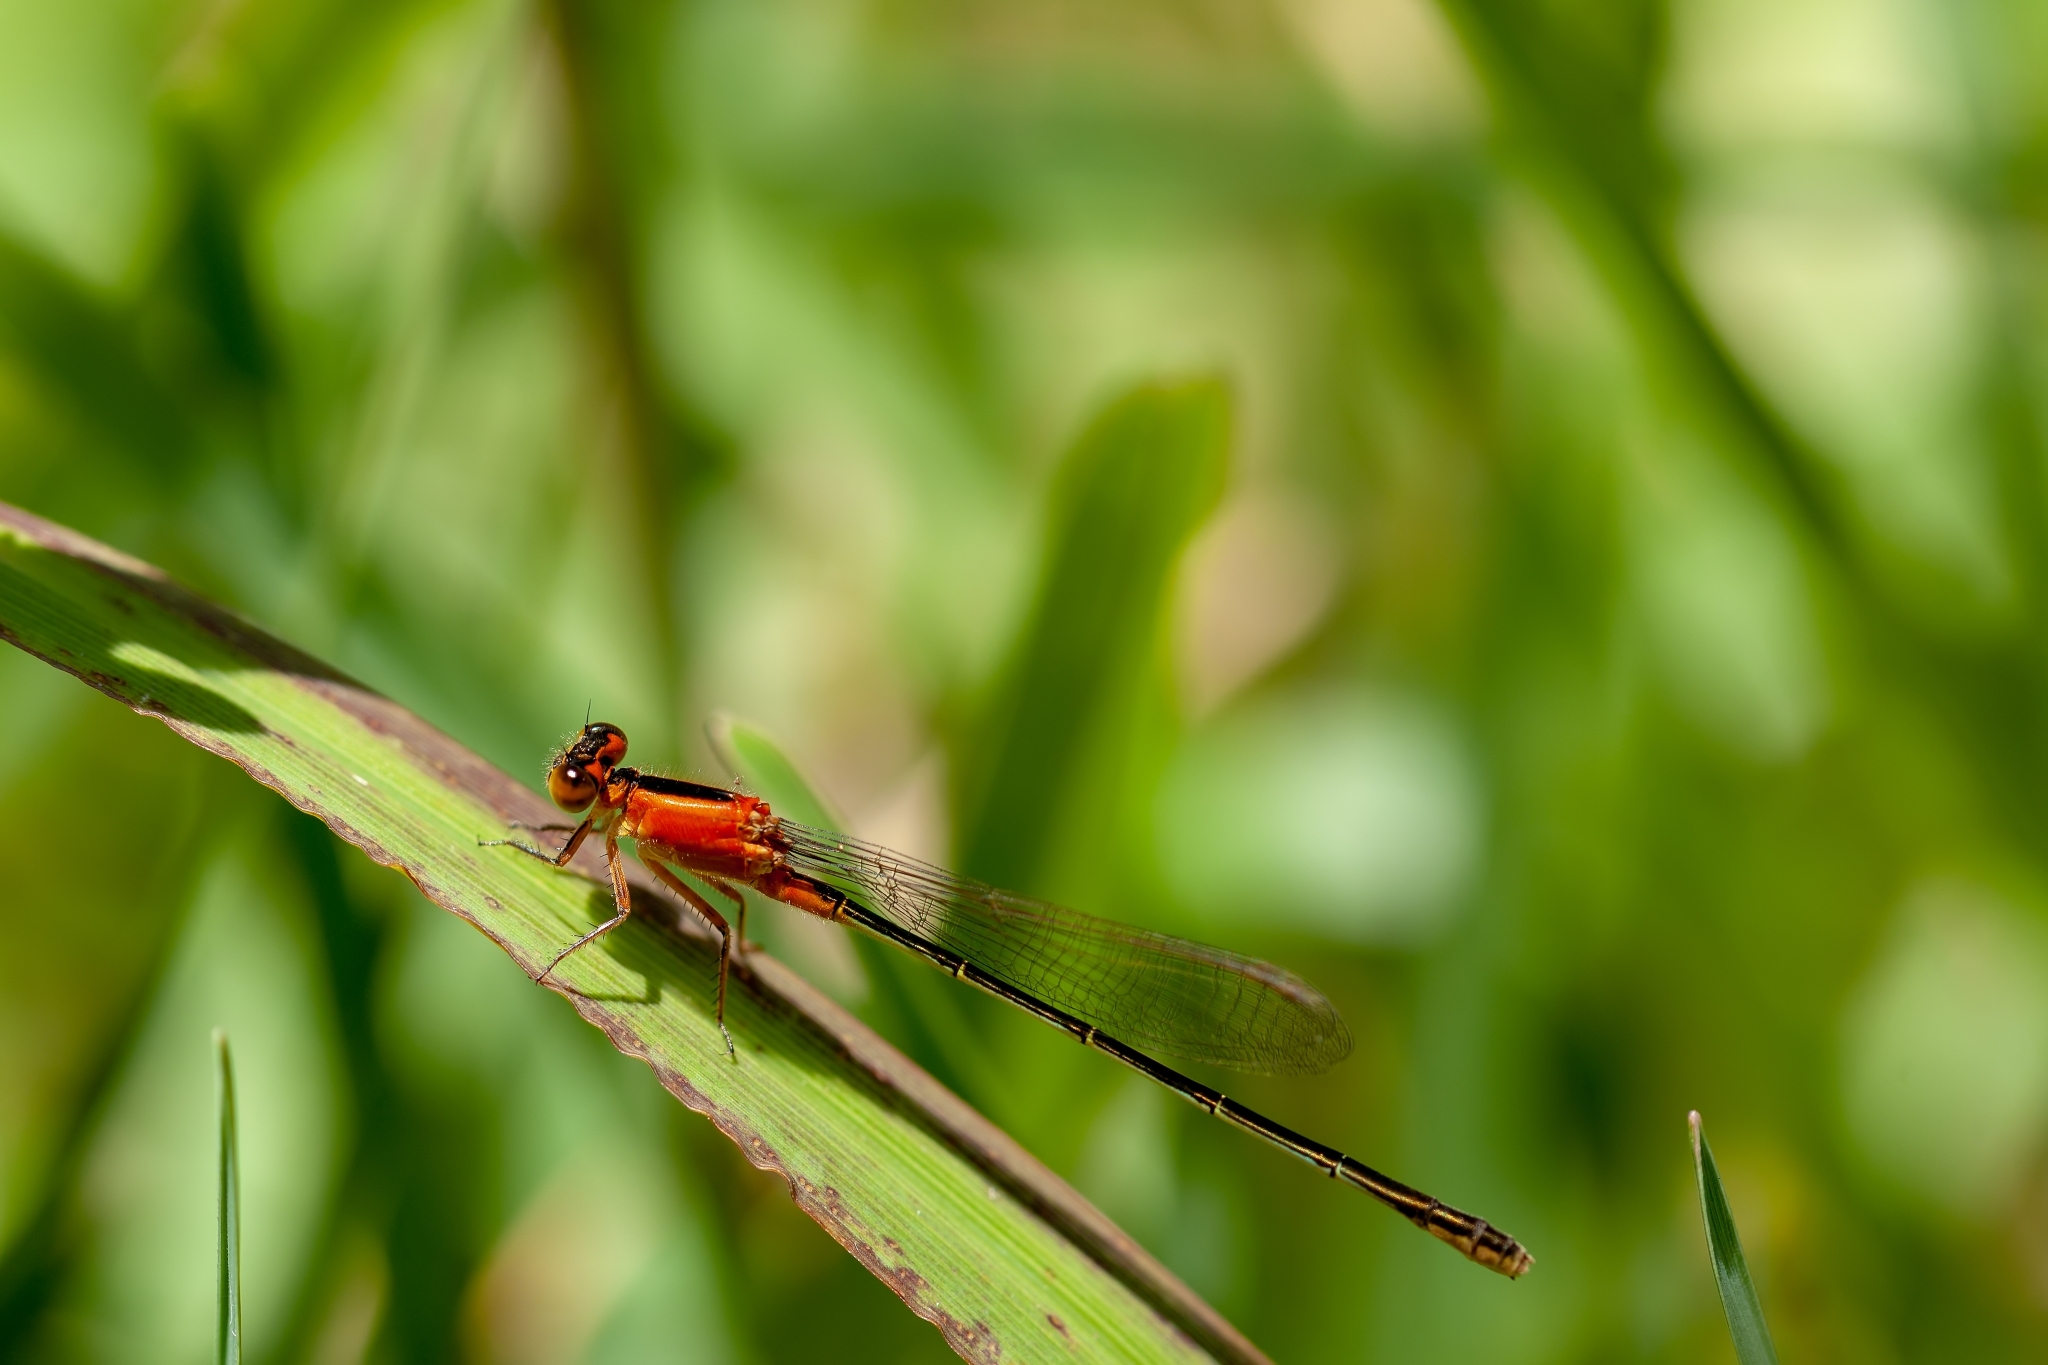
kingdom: Animalia
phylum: Arthropoda
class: Insecta
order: Odonata
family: Coenagrionidae
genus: Ischnura
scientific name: Ischnura ramburii
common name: Rambur's forktail
